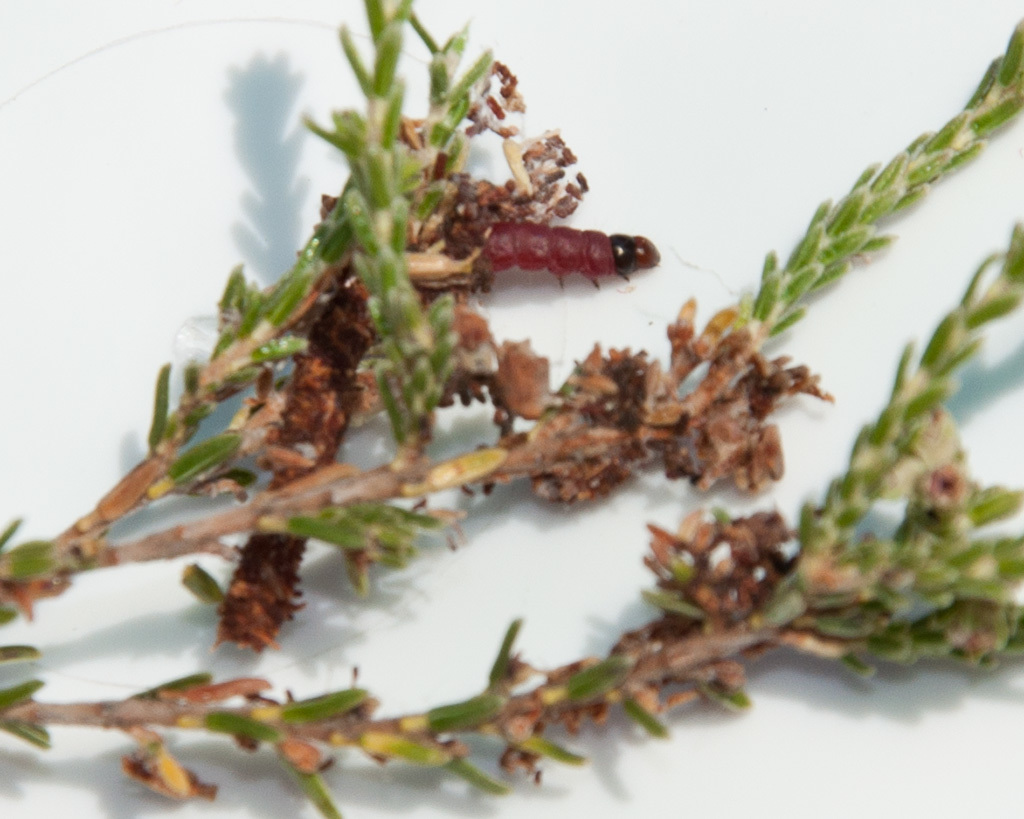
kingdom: Animalia
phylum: Arthropoda
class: Insecta
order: Lepidoptera
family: Pyralidae
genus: Triphassa
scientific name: Triphassa stalachtis
